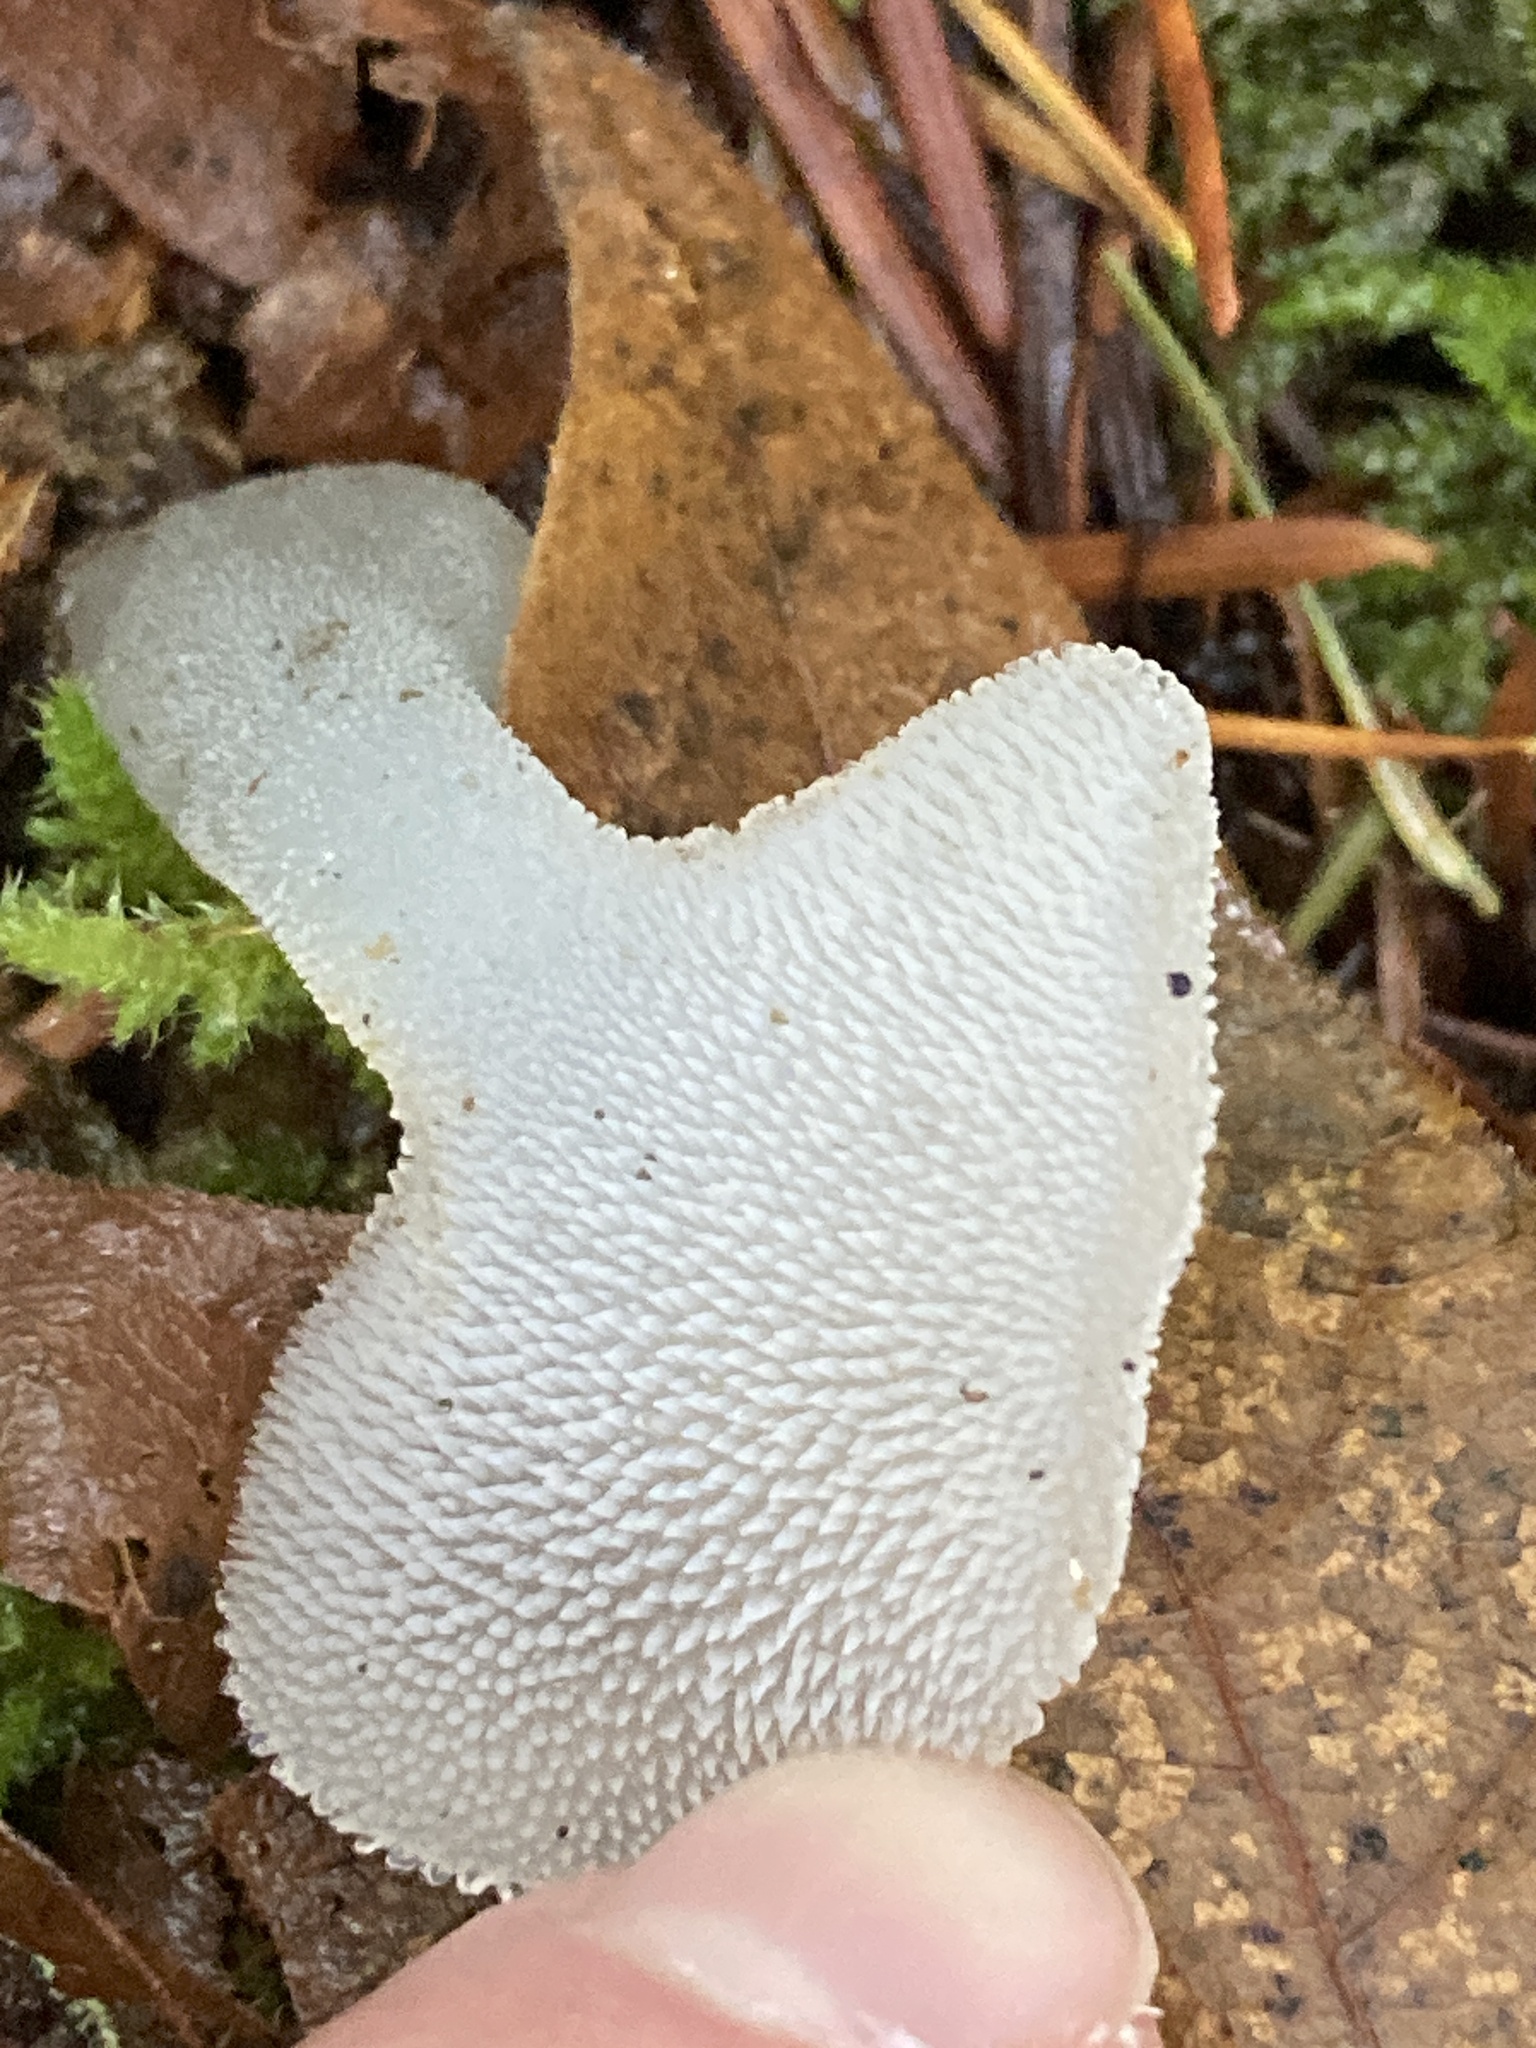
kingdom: Fungi
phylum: Basidiomycota
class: Agaricomycetes
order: Auriculariales
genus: Pseudohydnum
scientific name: Pseudohydnum gelatinosum
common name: Jelly tongue
